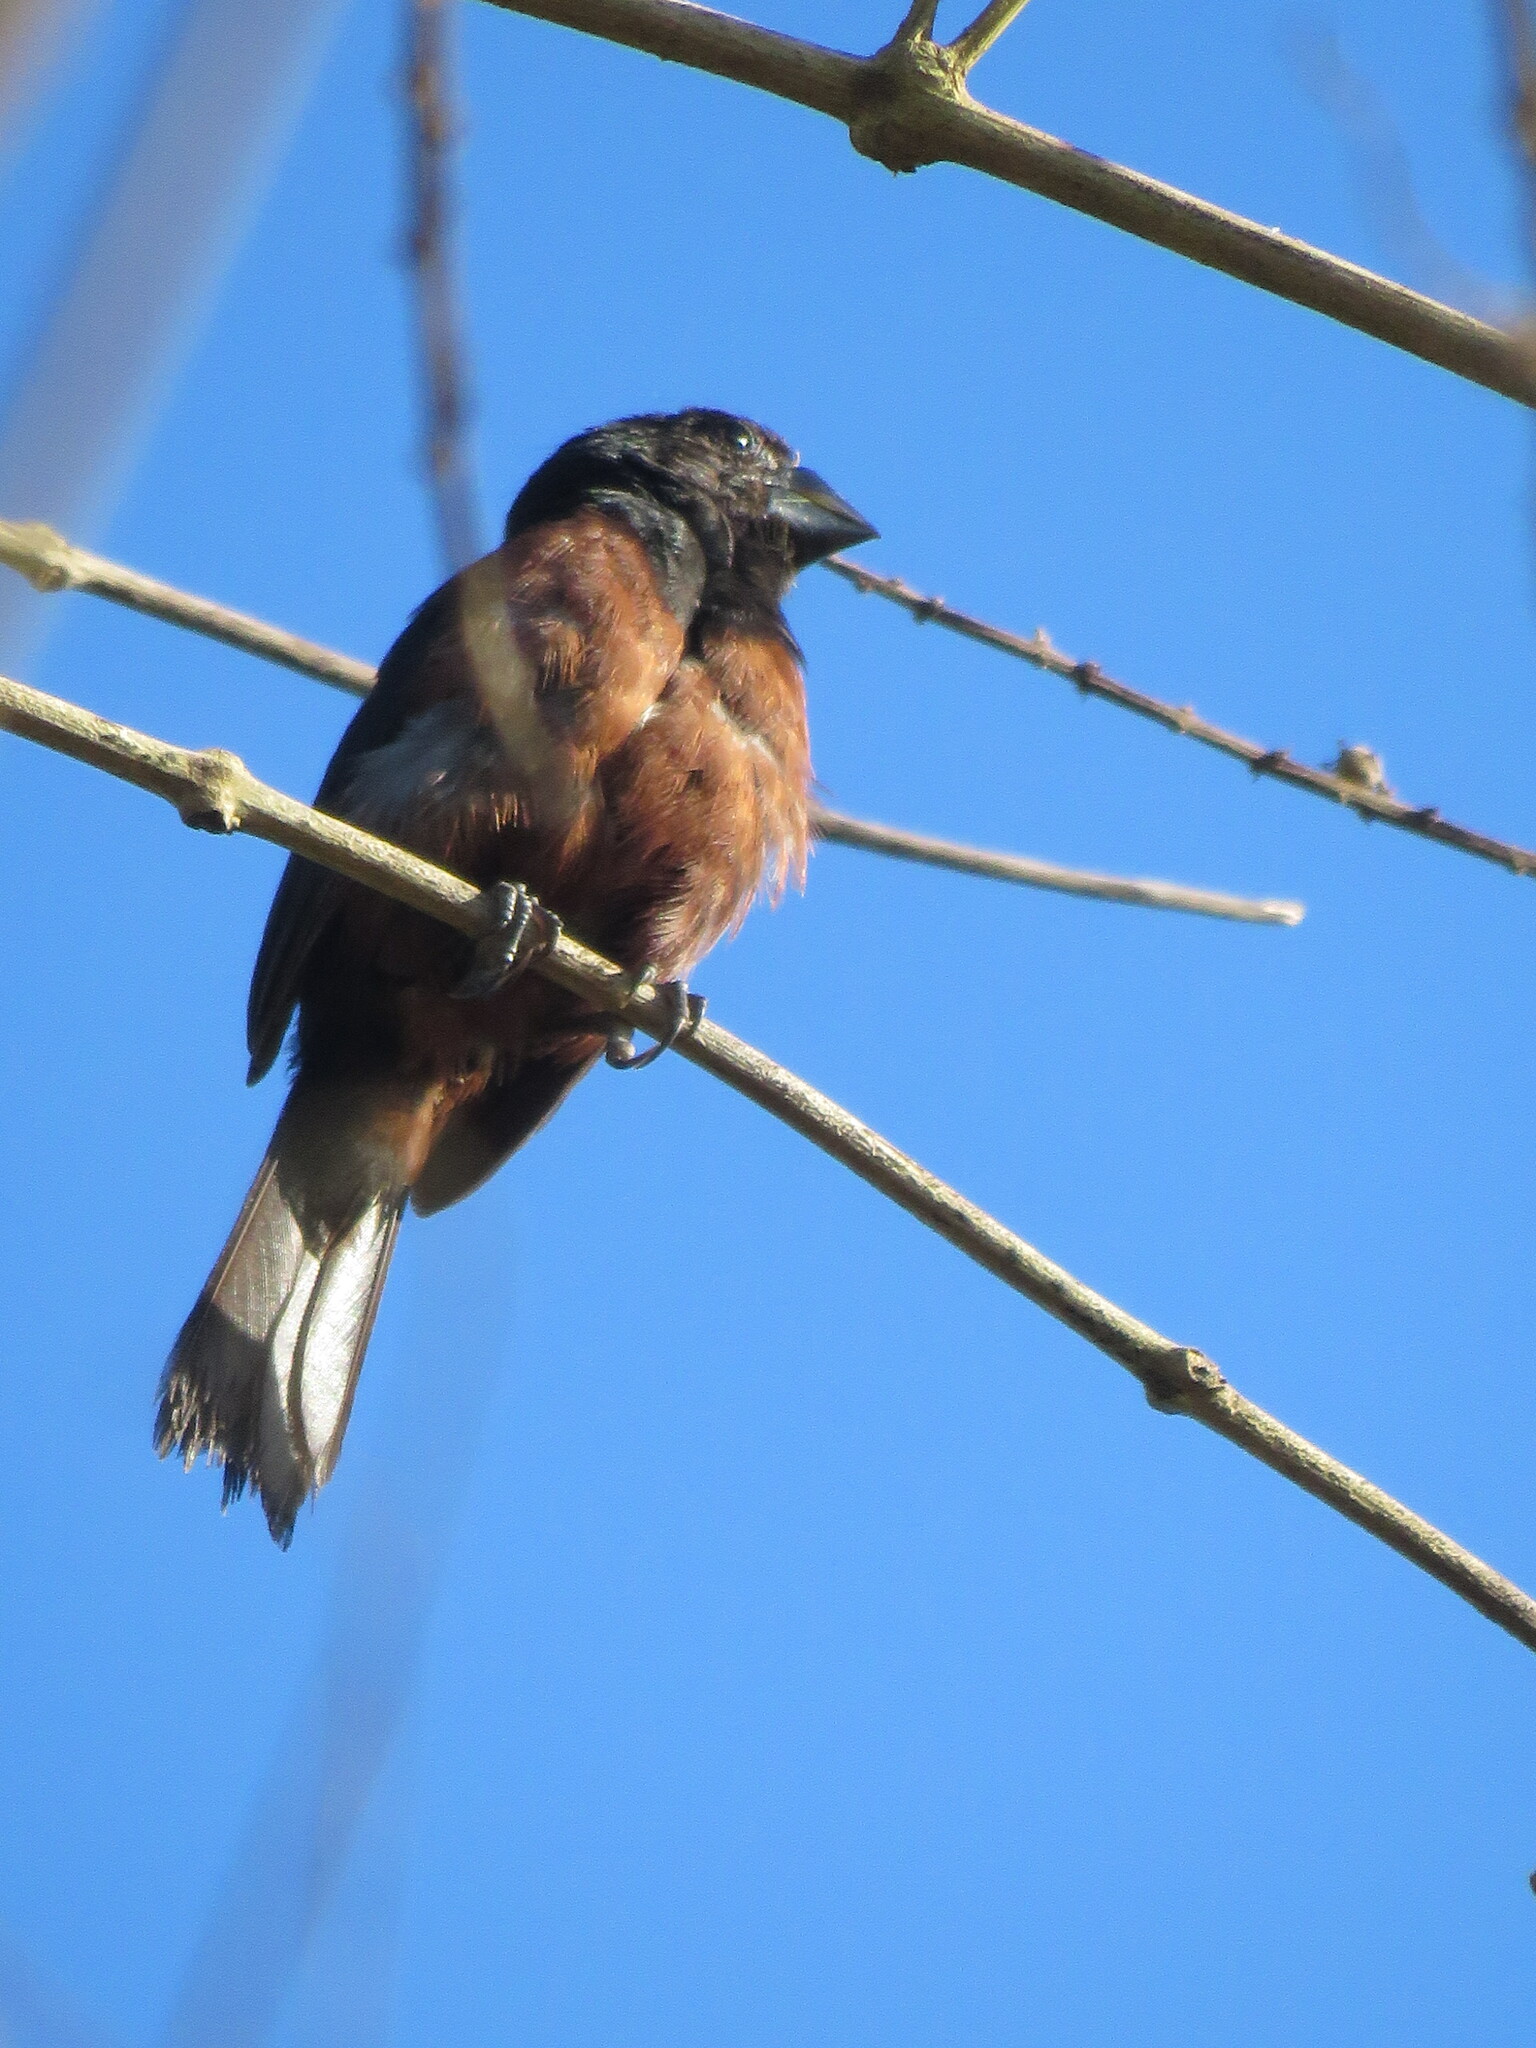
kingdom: Animalia
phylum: Chordata
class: Aves
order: Passeriformes
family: Thraupidae
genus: Sporophila
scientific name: Sporophila angolensis
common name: Chestnut-bellied seed-finch
